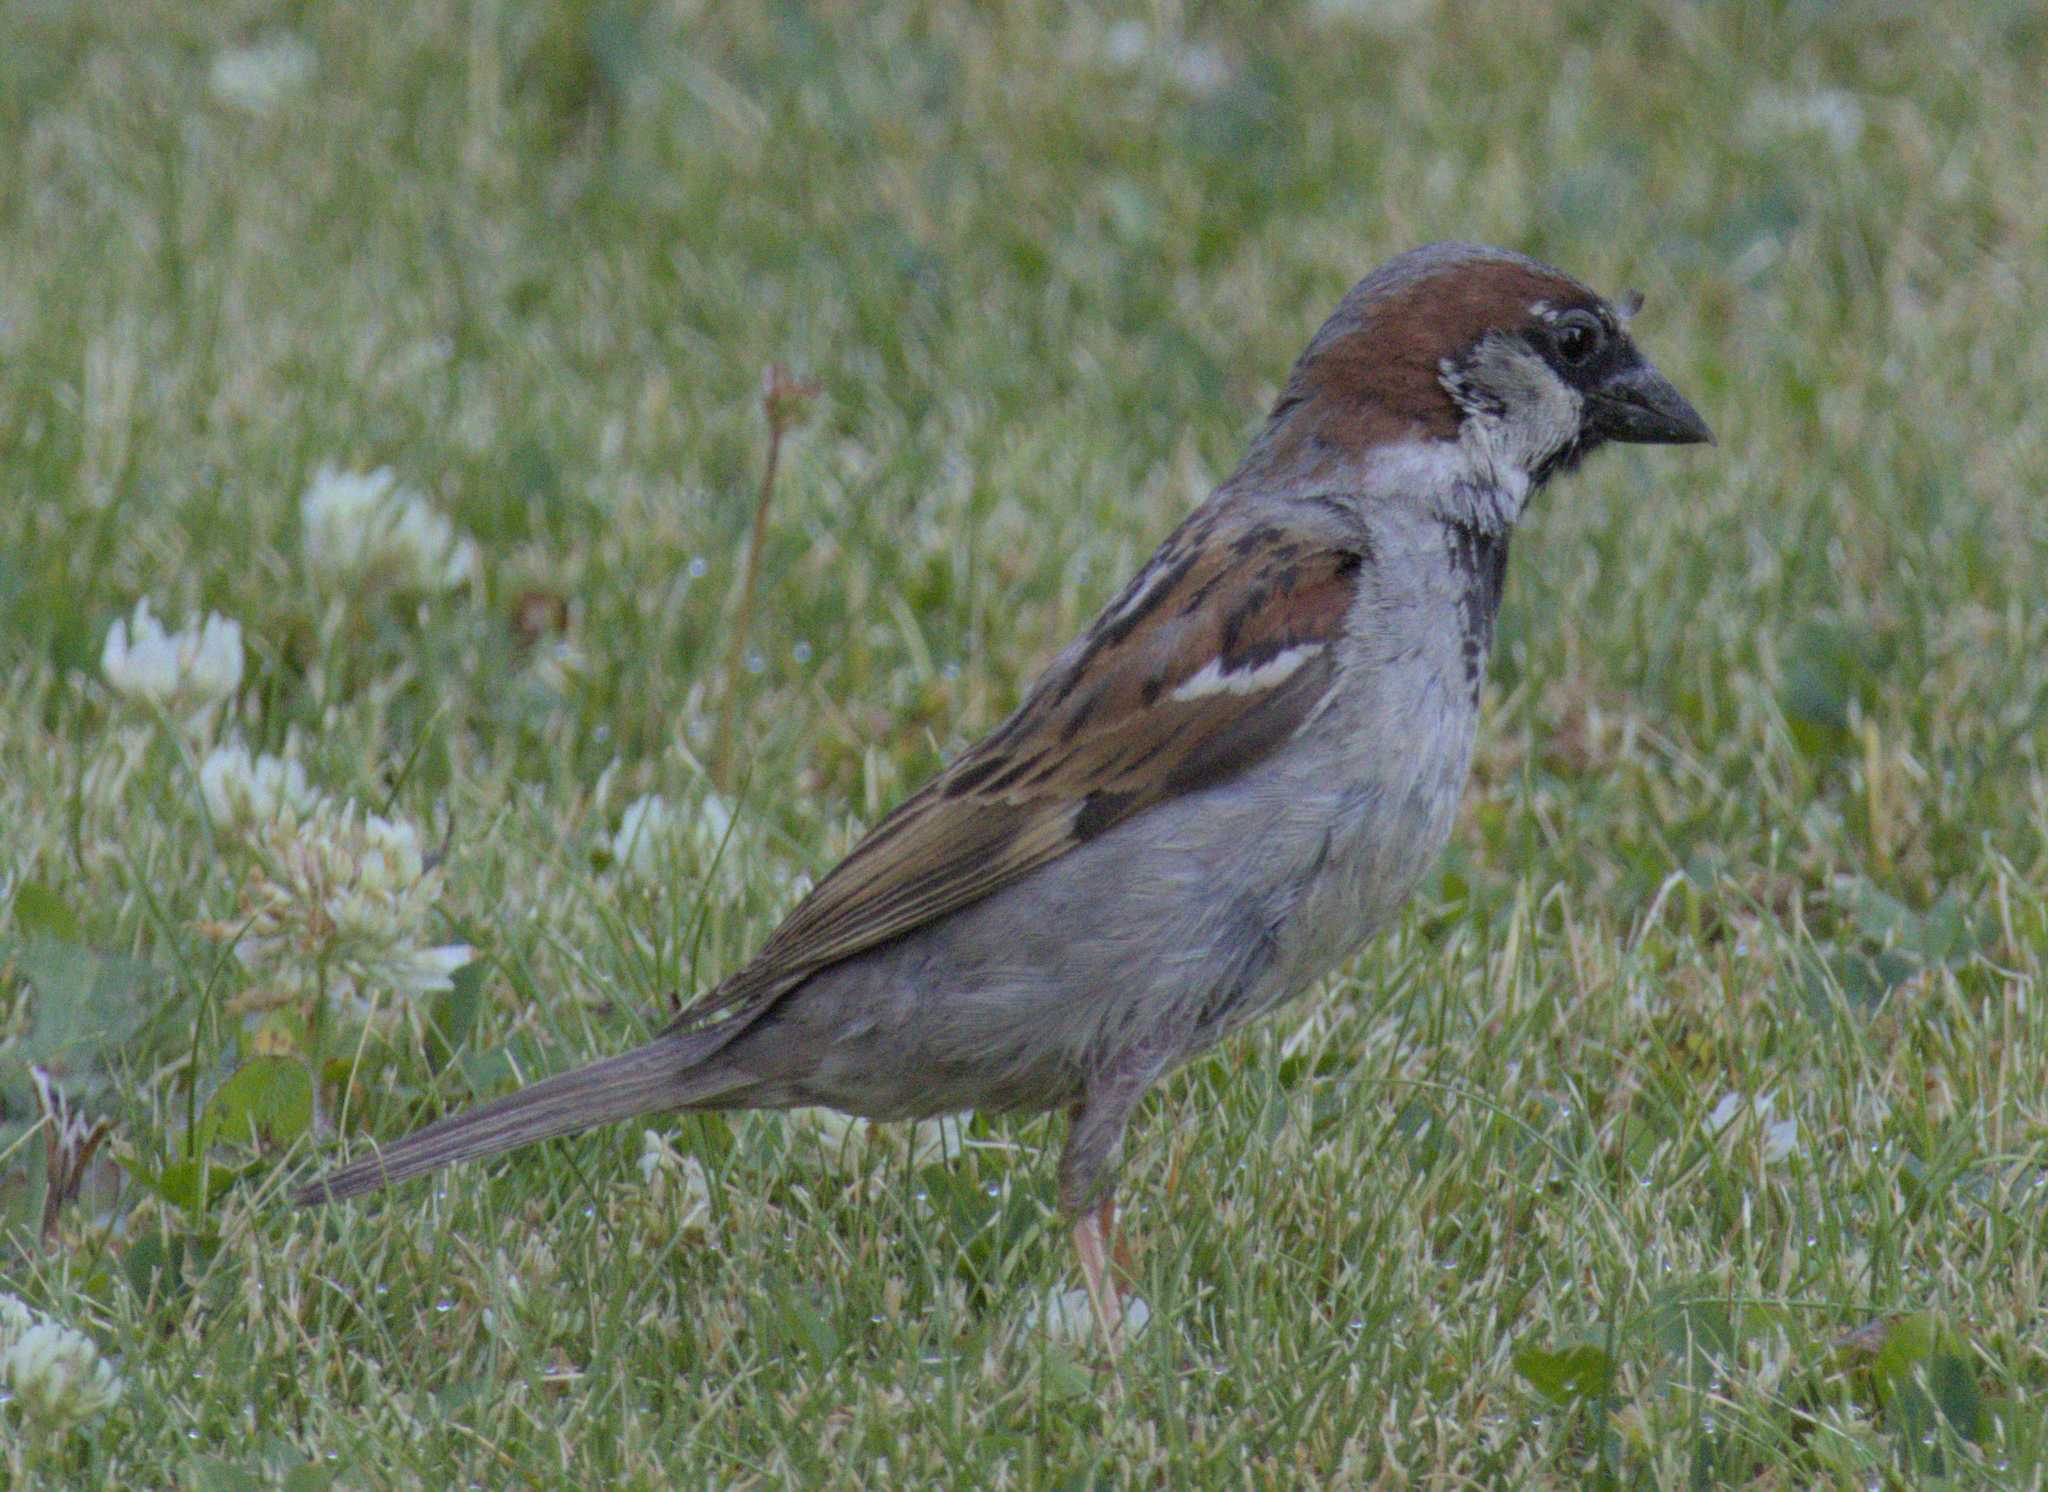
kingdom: Animalia
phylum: Chordata
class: Aves
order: Passeriformes
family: Passeridae
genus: Passer
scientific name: Passer domesticus
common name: House sparrow
